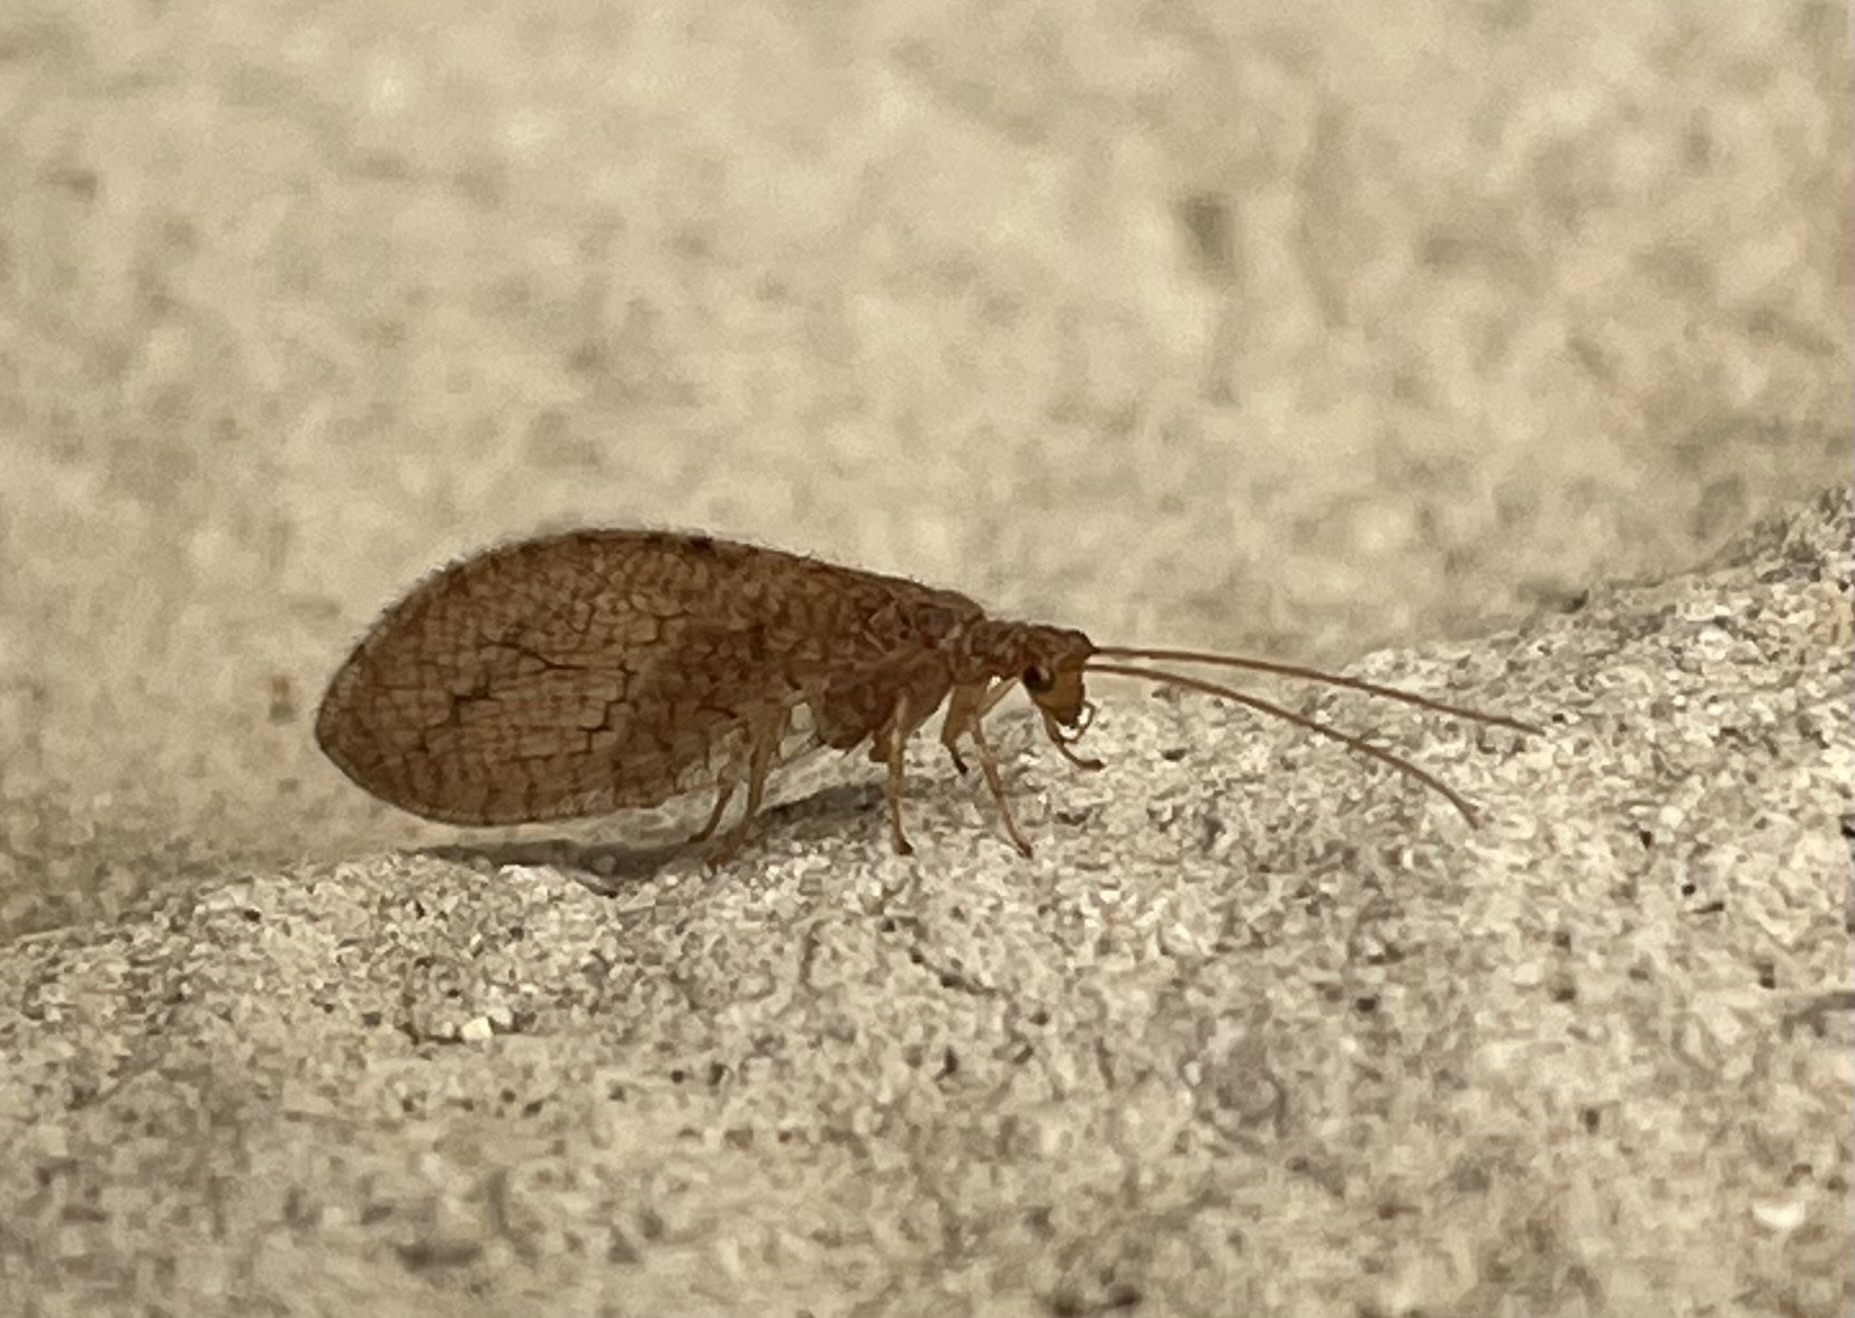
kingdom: Animalia
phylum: Arthropoda
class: Insecta
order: Neuroptera
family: Hemerobiidae
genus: Micromus
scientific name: Micromus posticus
